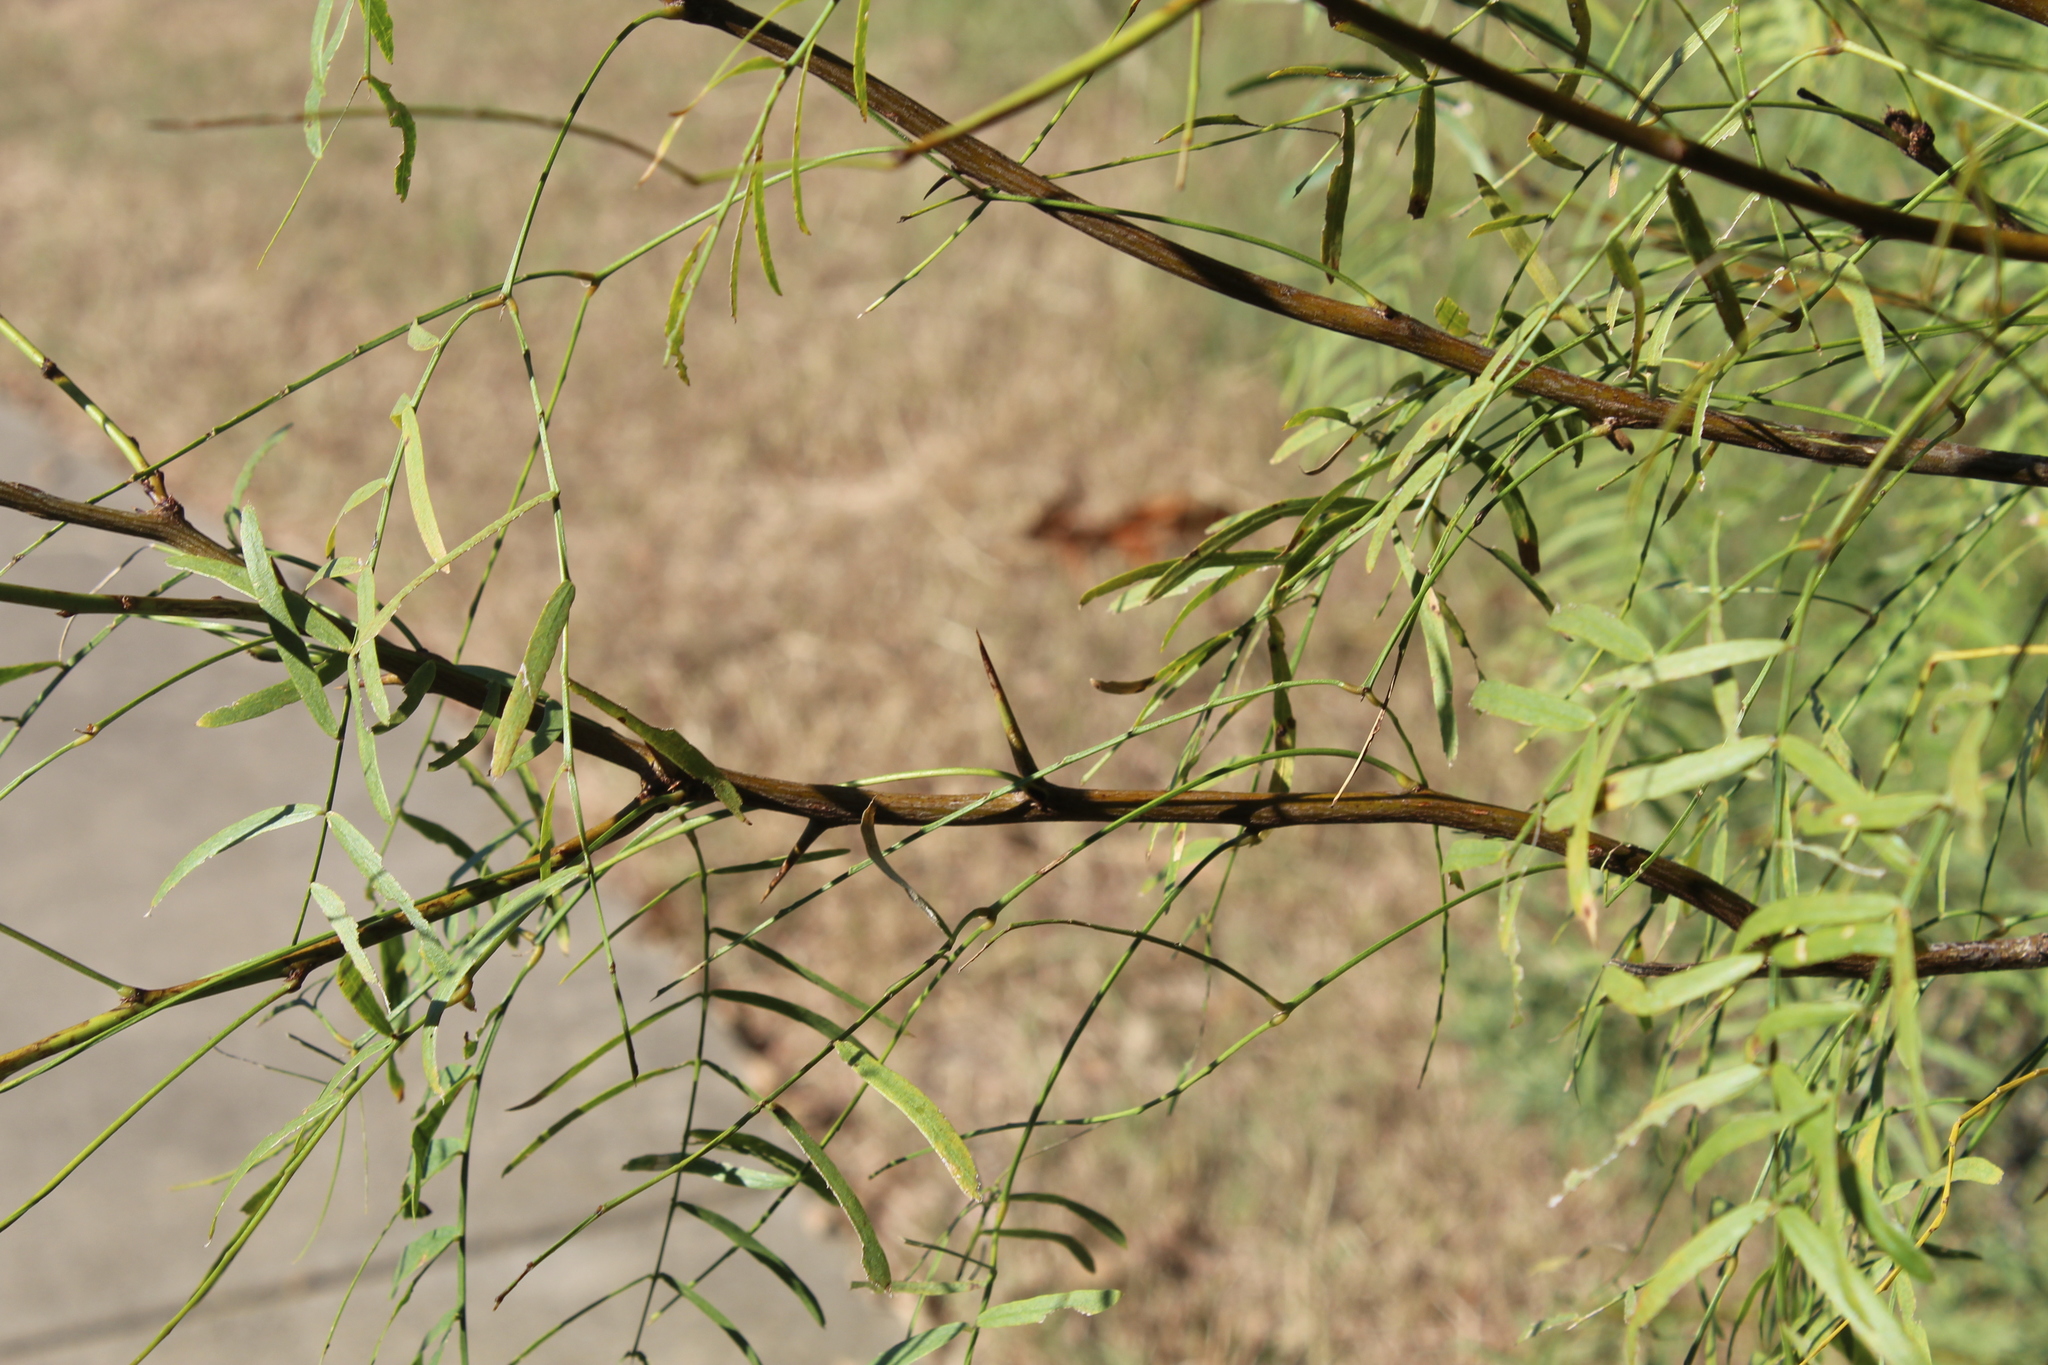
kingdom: Plantae
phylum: Tracheophyta
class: Magnoliopsida
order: Fabales
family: Fabaceae
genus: Prosopis
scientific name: Prosopis glandulosa
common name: Honey mesquite
